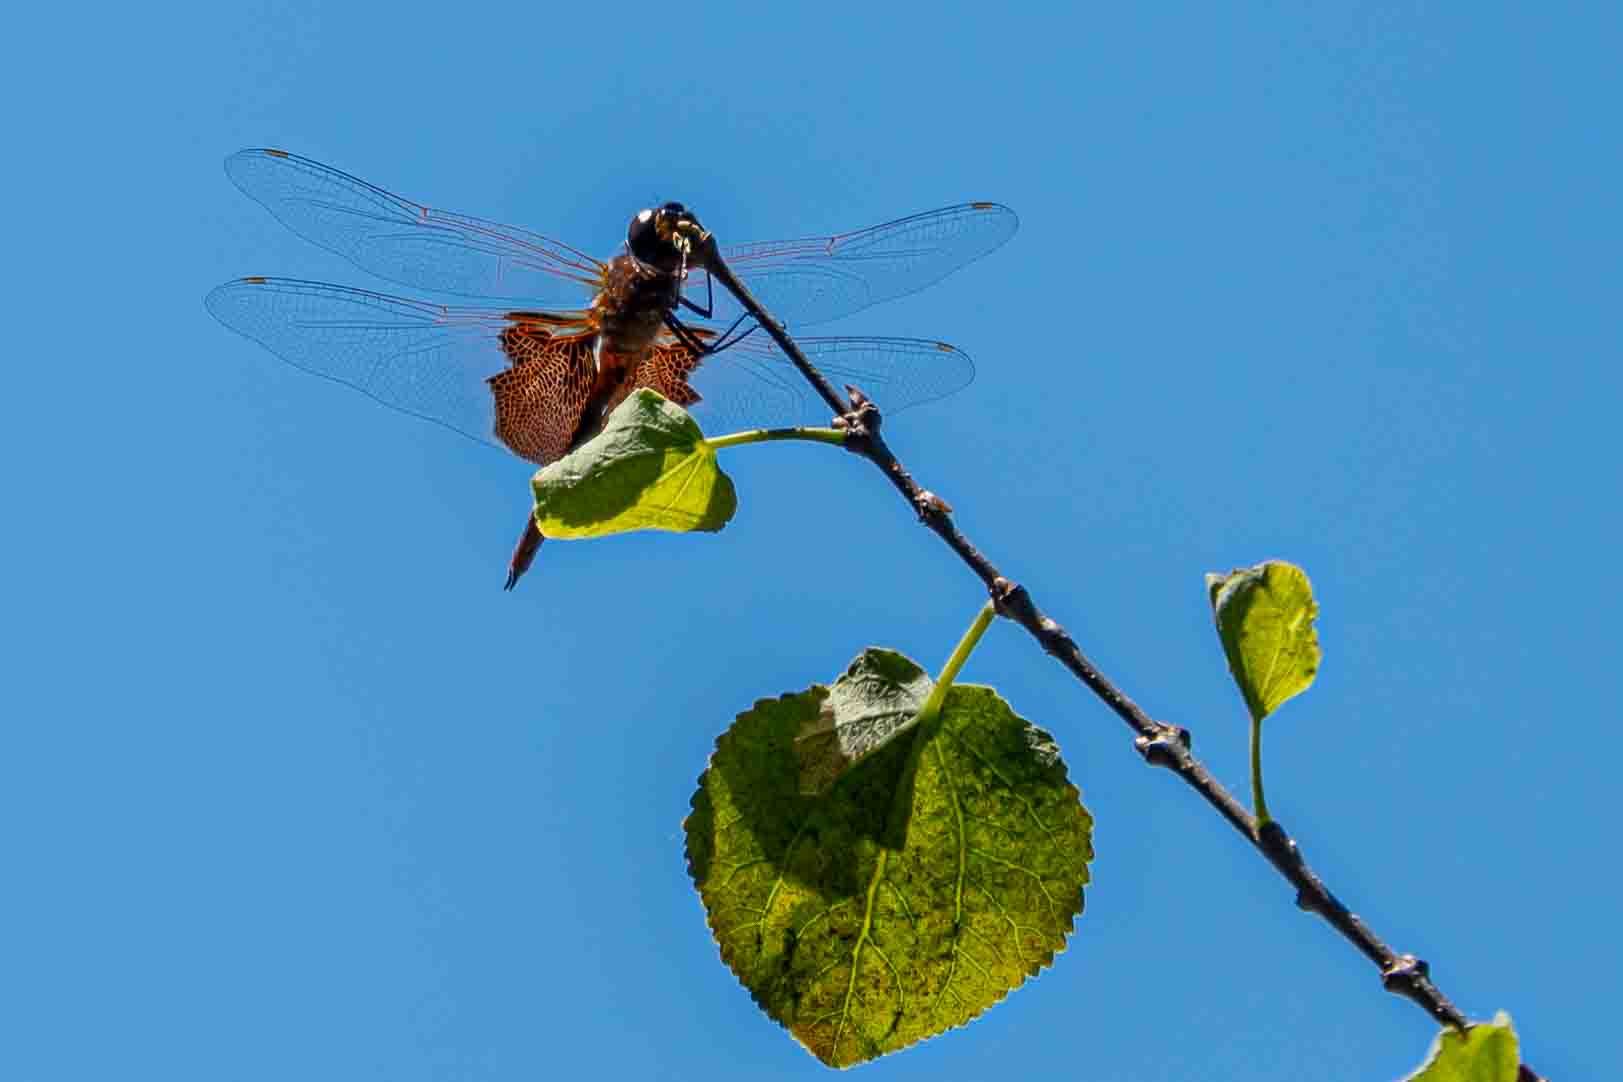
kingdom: Animalia
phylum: Arthropoda
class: Insecta
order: Odonata
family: Libellulidae
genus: Tramea
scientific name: Tramea carolina
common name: Carolina saddlebags
